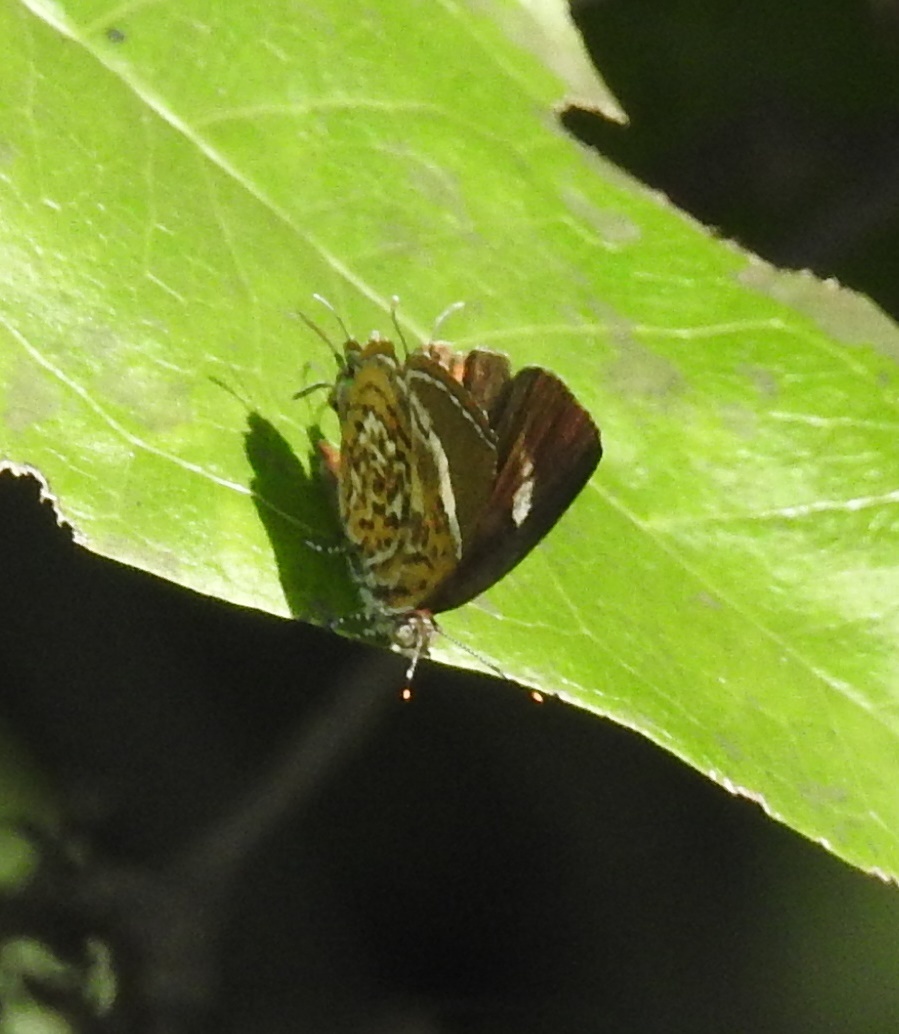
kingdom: Animalia
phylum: Arthropoda
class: Insecta
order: Lepidoptera
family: Lycaenidae
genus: Rathinda
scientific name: Rathinda amor
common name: Monkey puzzle
